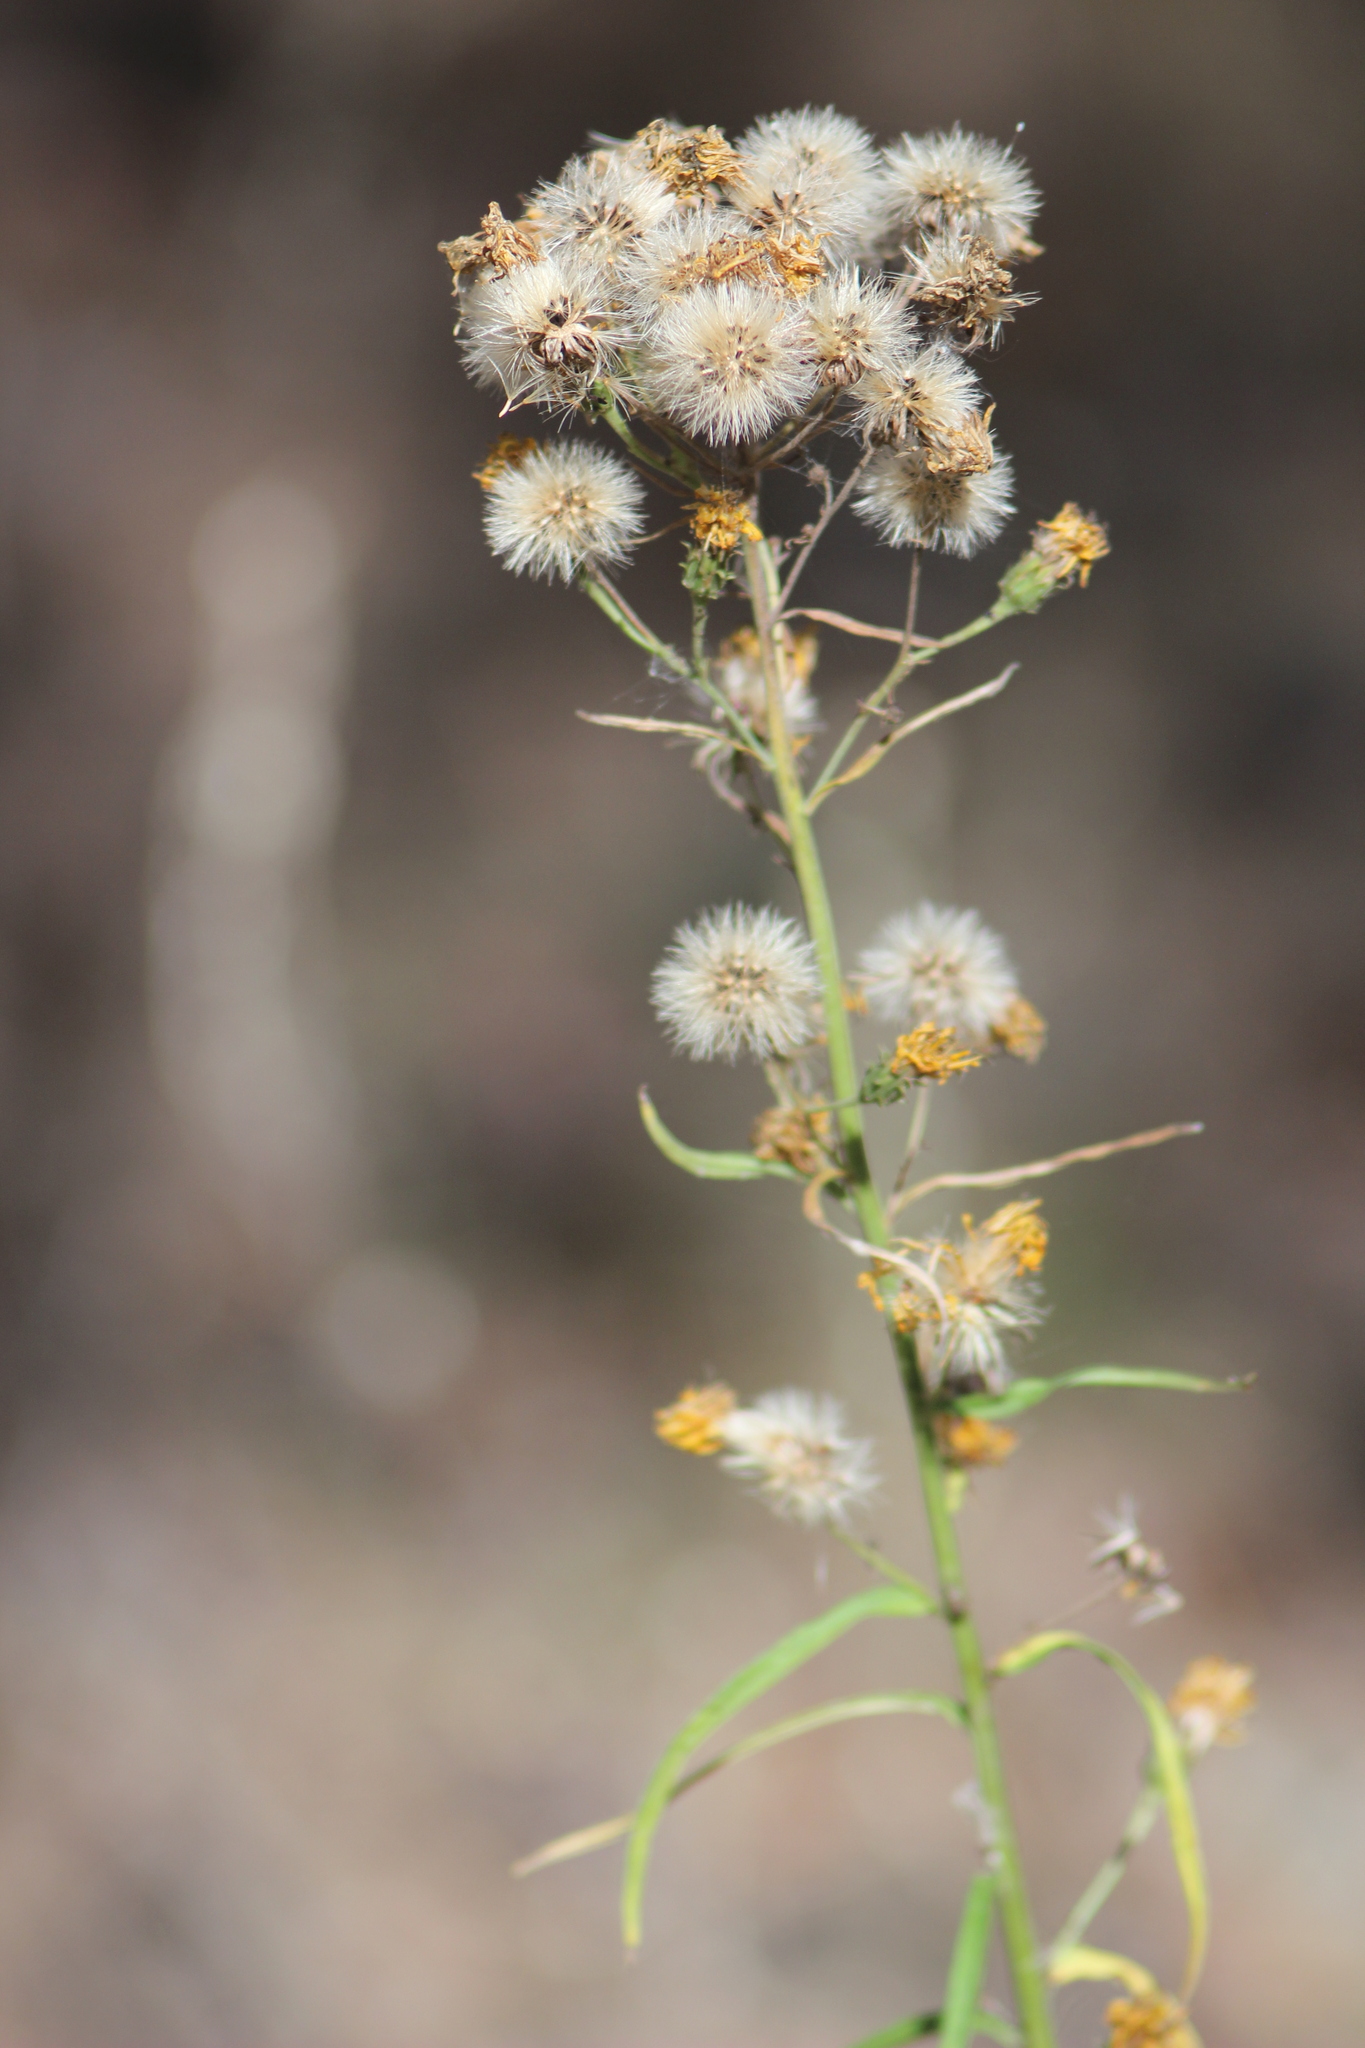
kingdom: Plantae
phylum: Tracheophyta
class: Magnoliopsida
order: Asterales
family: Asteraceae
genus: Hieracium
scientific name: Hieracium umbellatum
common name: Northern hawkweed
